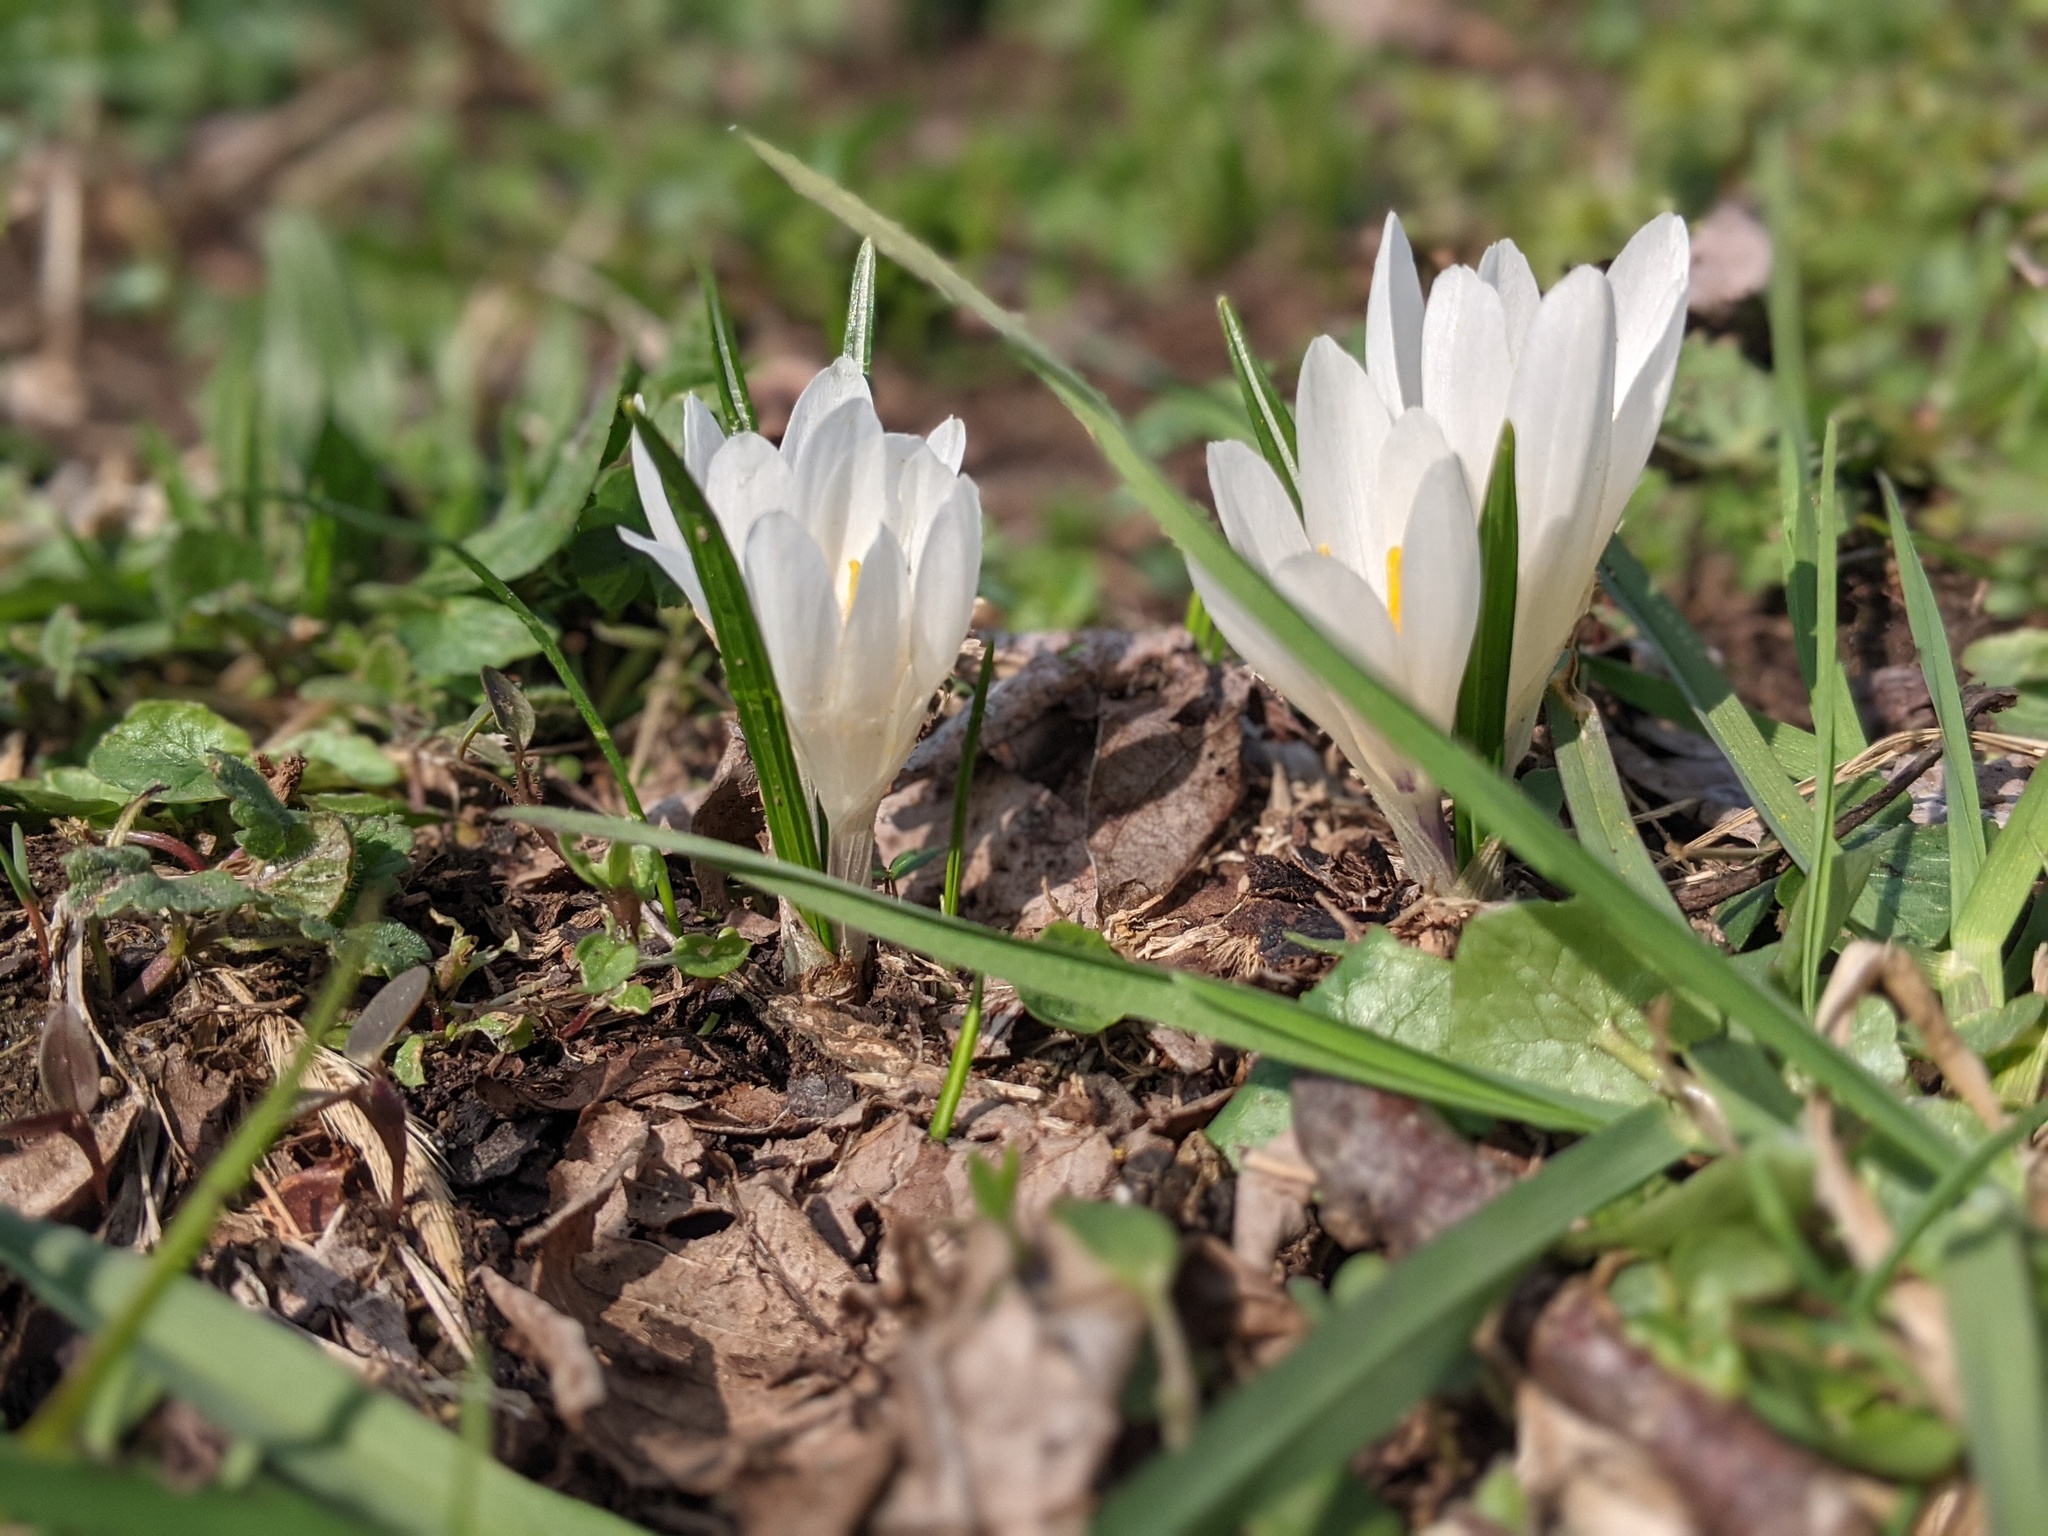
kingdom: Plantae
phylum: Tracheophyta
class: Liliopsida
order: Asparagales
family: Iridaceae
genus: Crocus
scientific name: Crocus vernus
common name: Spring crocus
